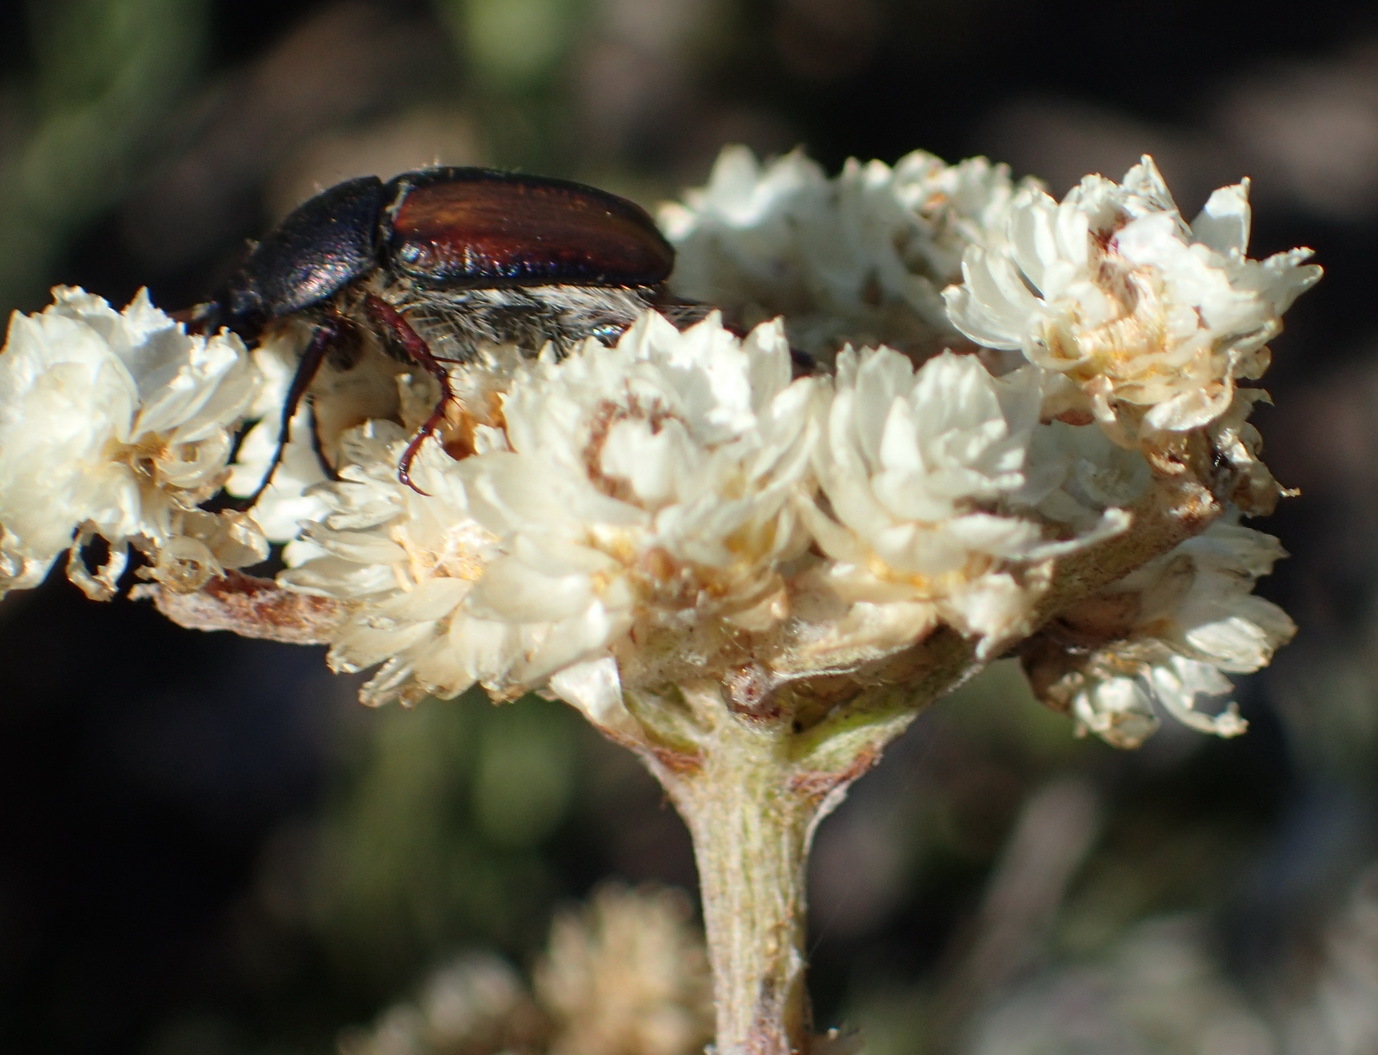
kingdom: Plantae
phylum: Tracheophyta
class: Magnoliopsida
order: Asterales
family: Asteraceae
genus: Helichrysum
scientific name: Helichrysum felinum
